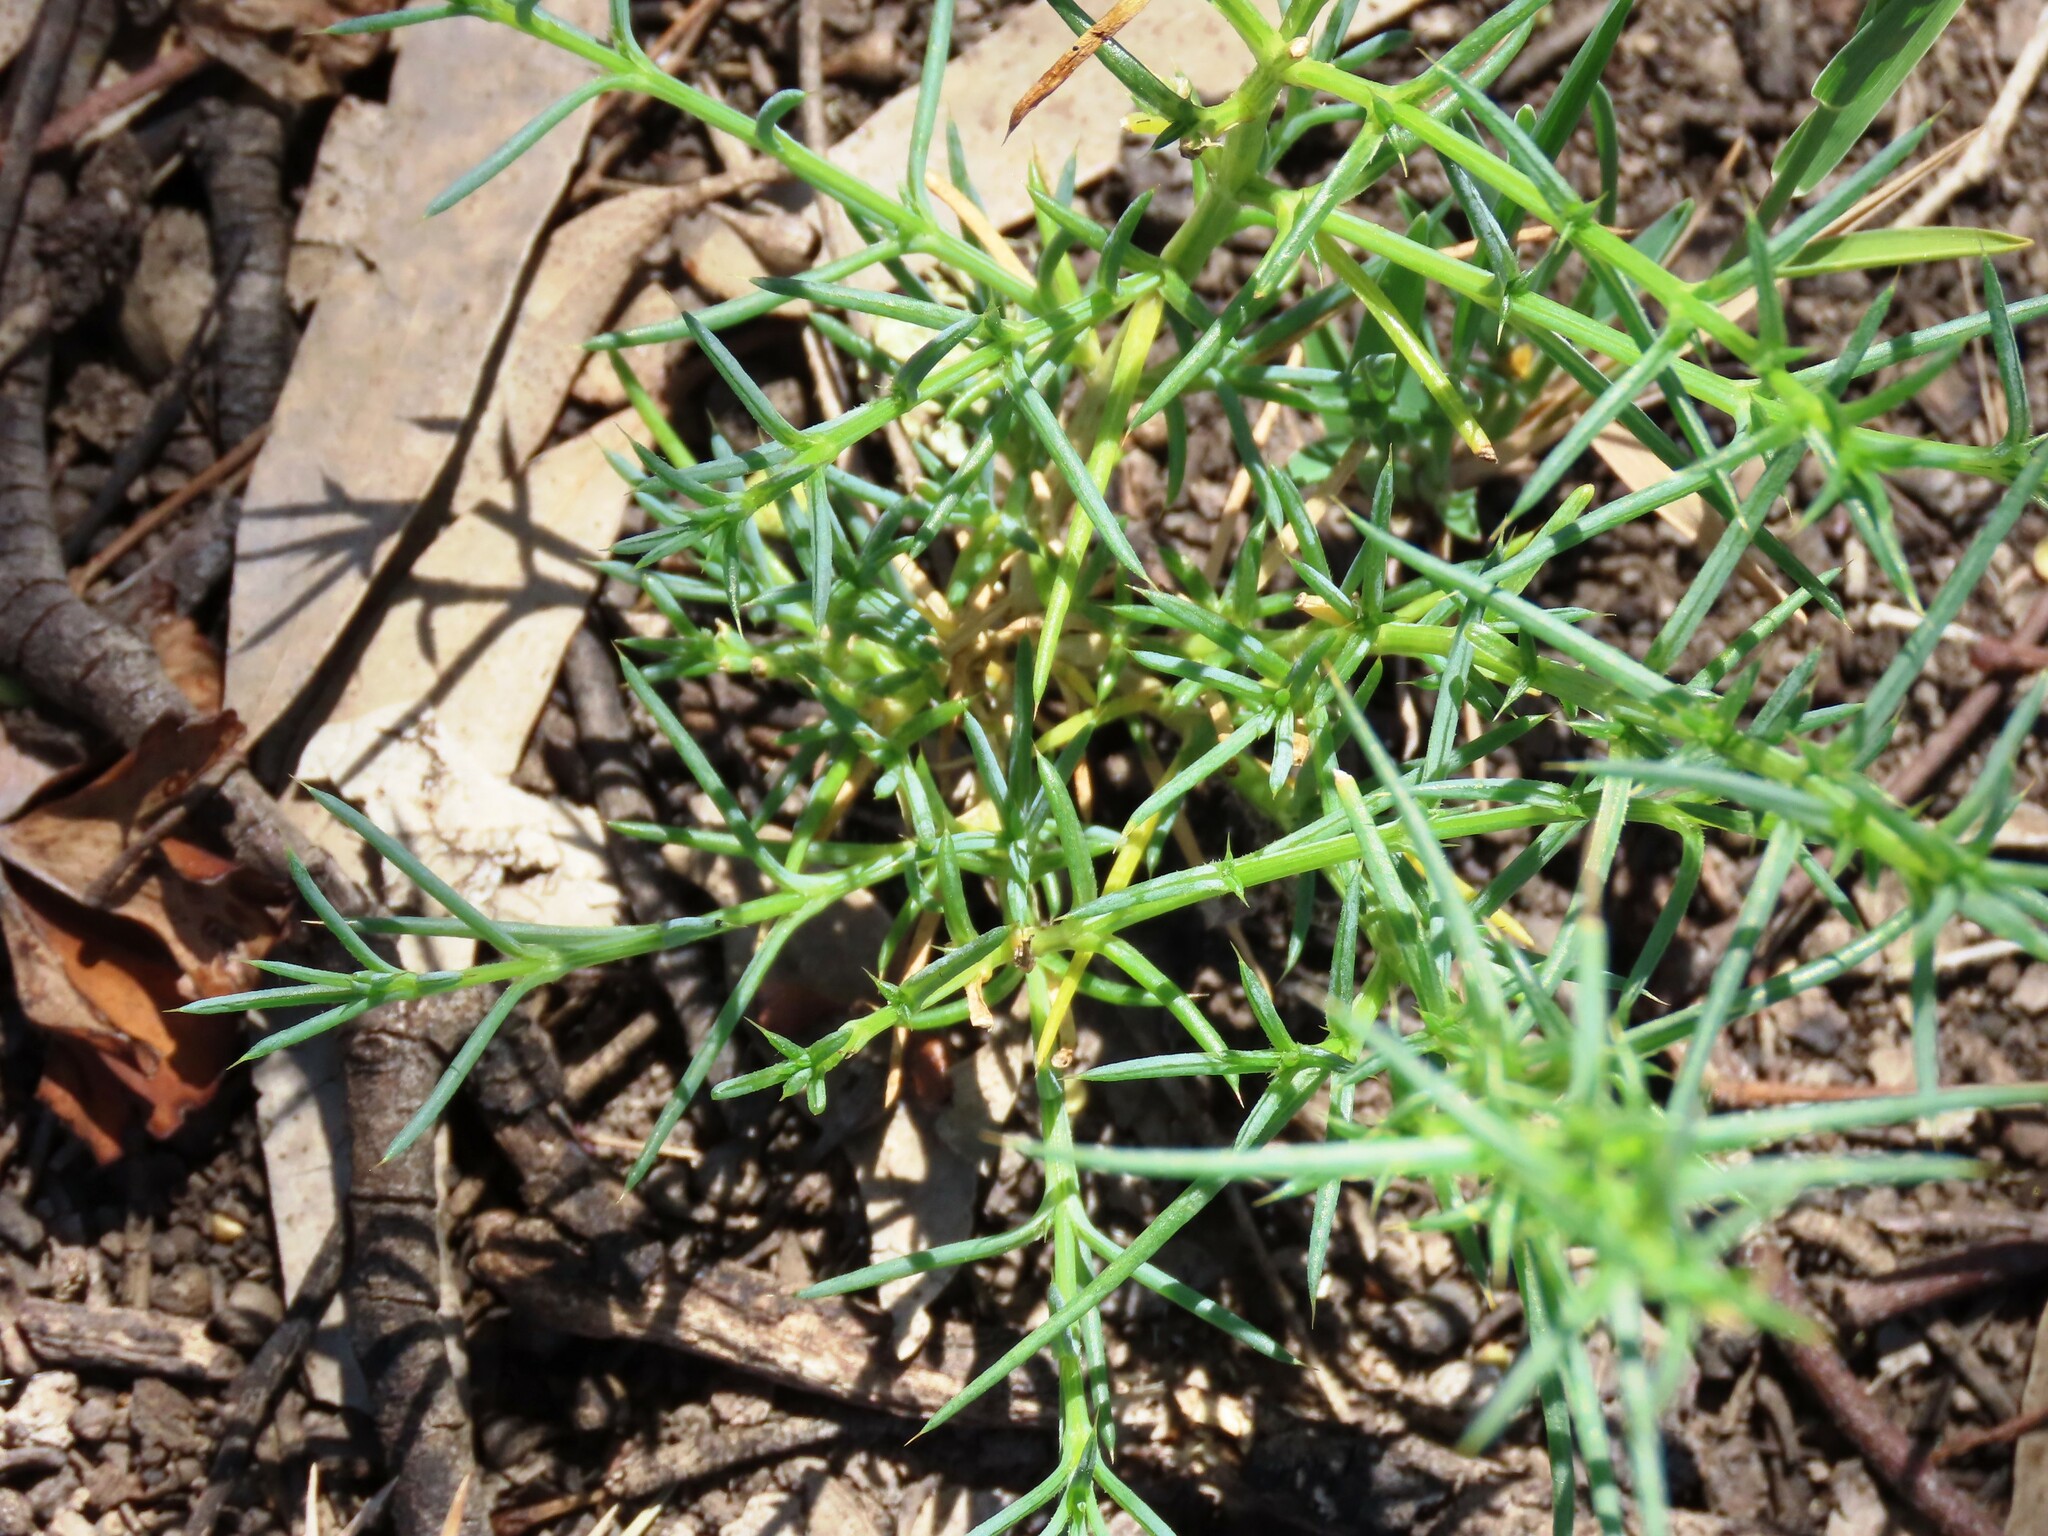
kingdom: Plantae
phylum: Tracheophyta
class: Magnoliopsida
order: Caryophyllales
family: Amaranthaceae
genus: Salsola
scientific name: Salsola australis
